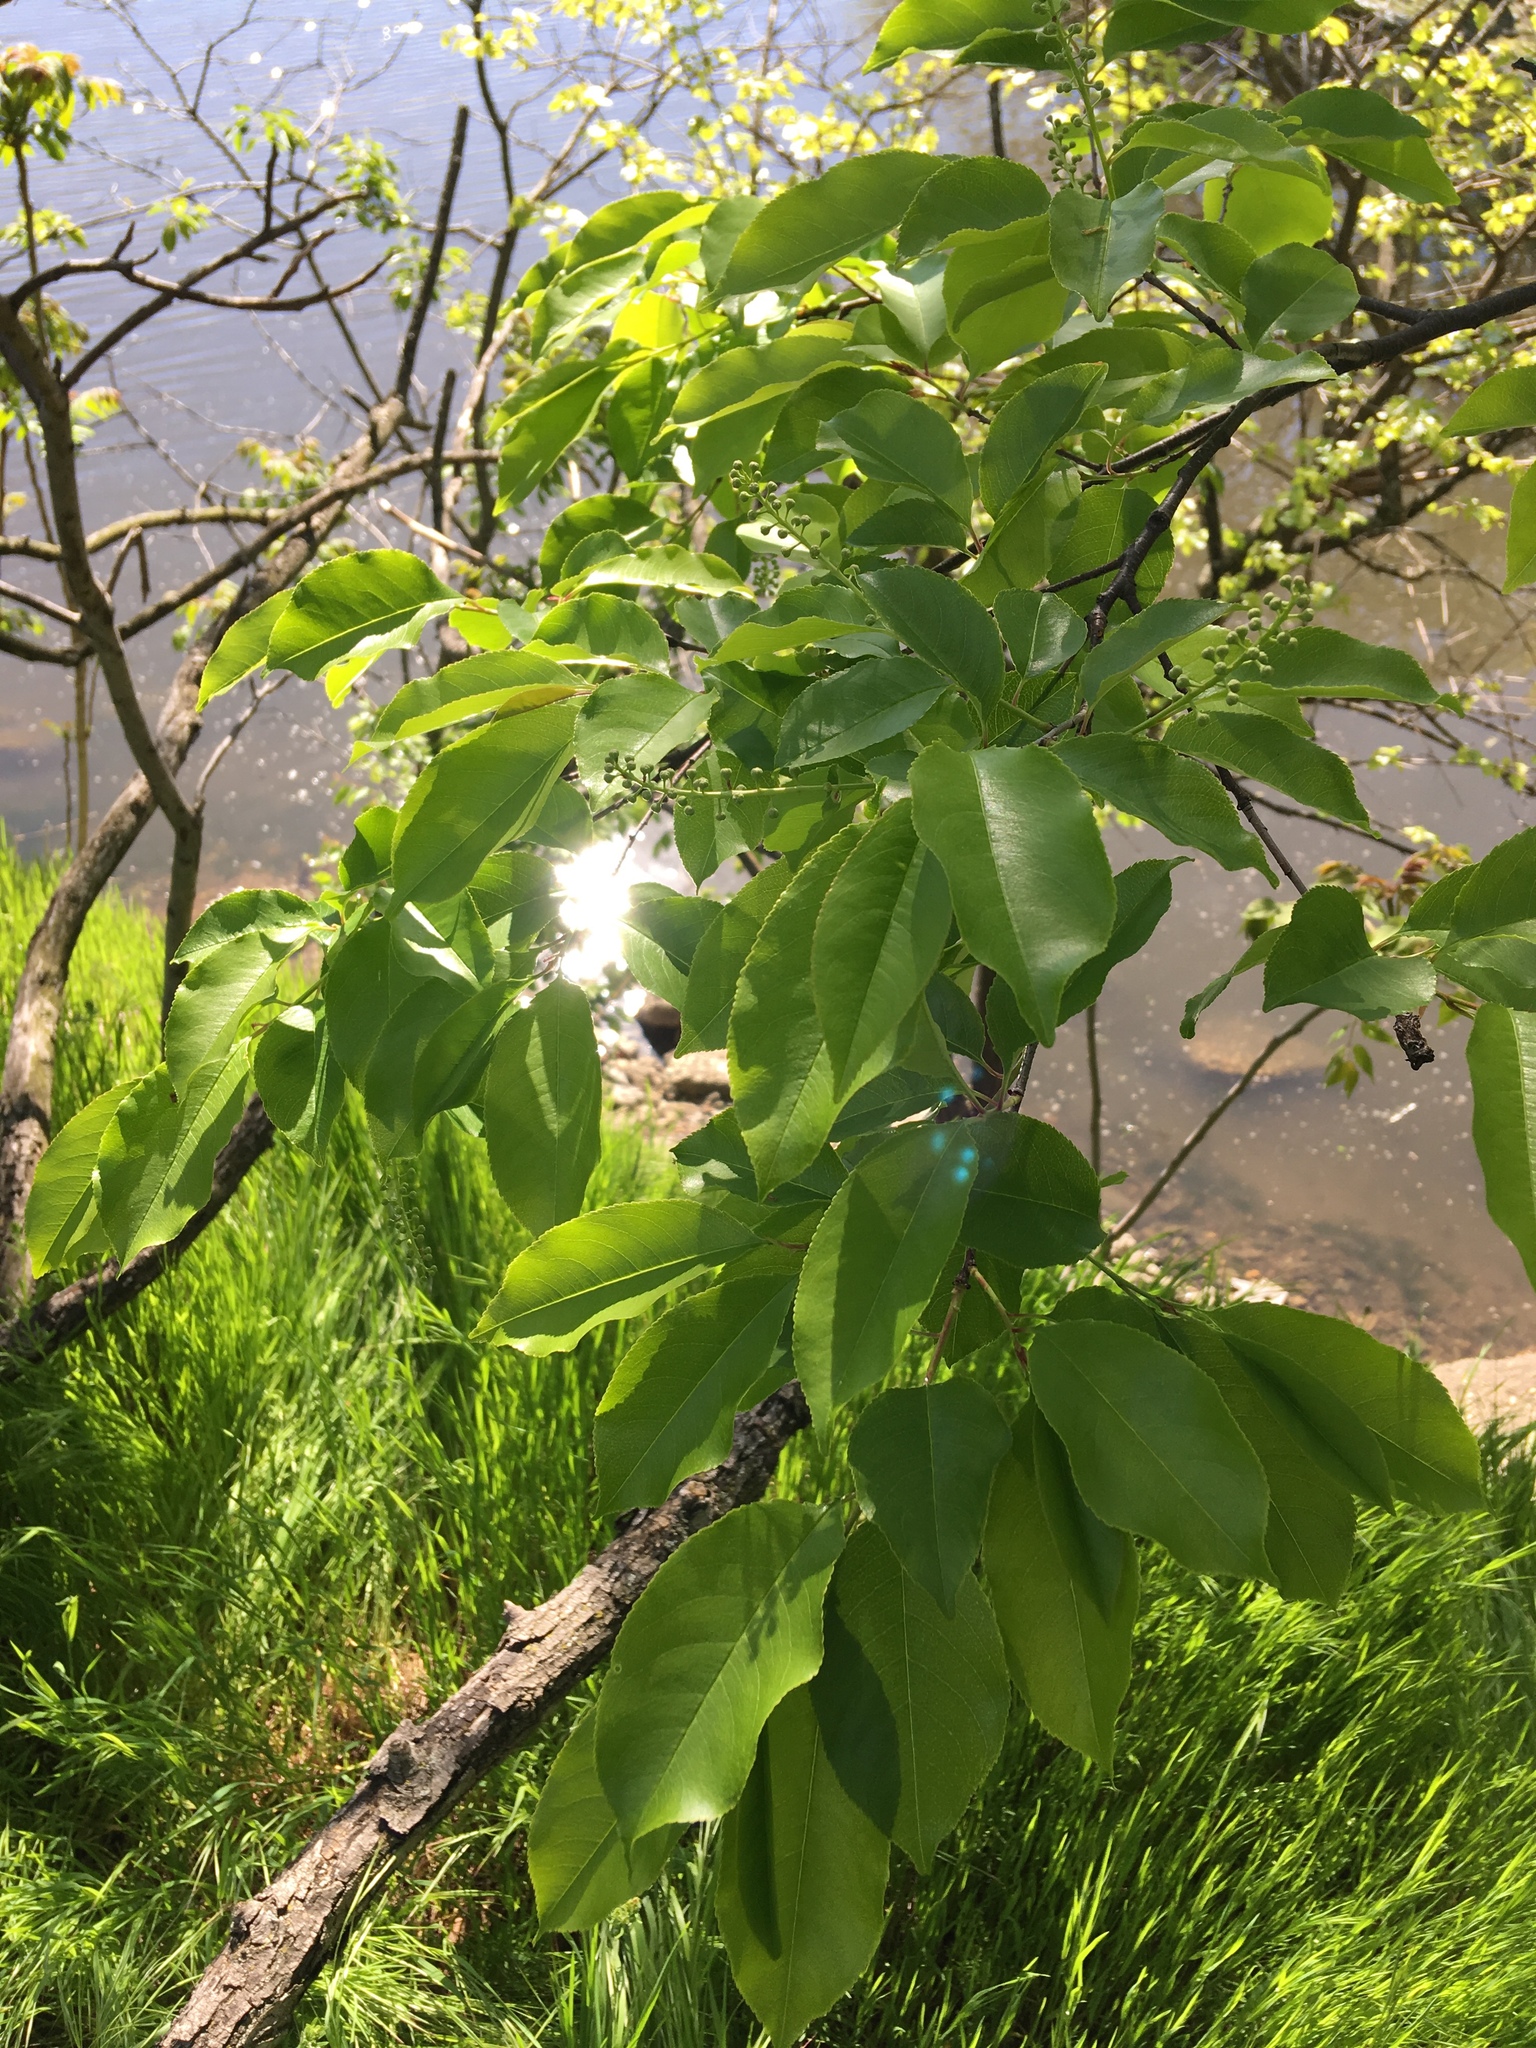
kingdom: Plantae
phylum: Tracheophyta
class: Magnoliopsida
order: Rosales
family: Rosaceae
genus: Prunus
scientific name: Prunus serotina
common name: Black cherry
